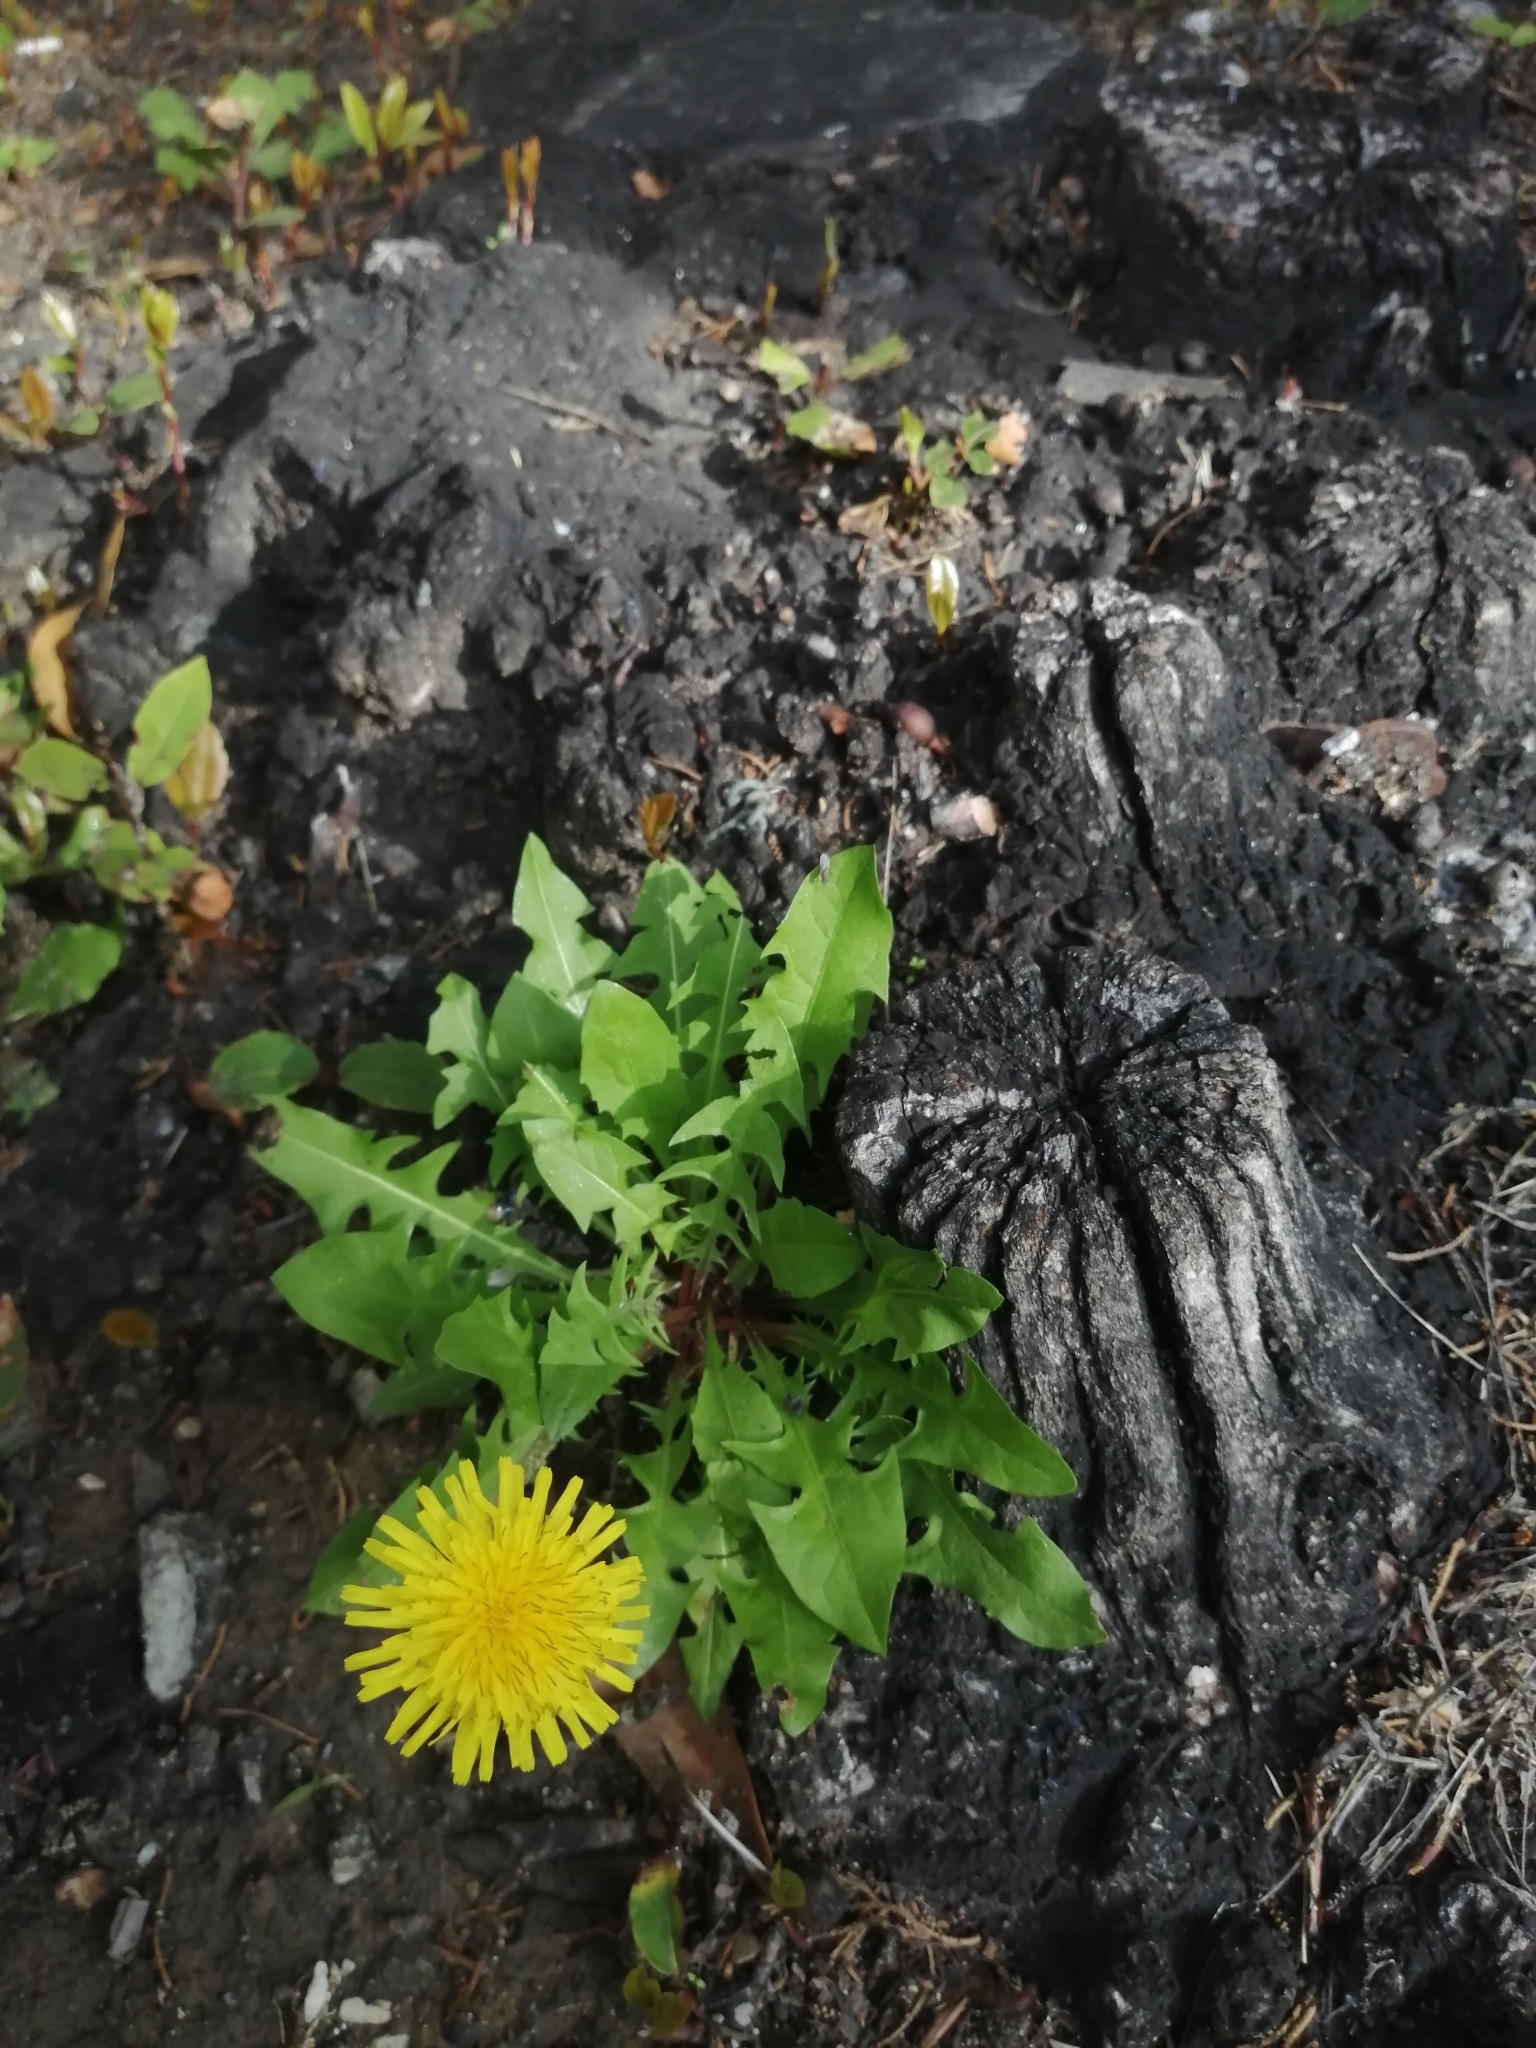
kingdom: Plantae
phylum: Tracheophyta
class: Magnoliopsida
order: Asterales
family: Asteraceae
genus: Taraxacum
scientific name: Taraxacum officinale
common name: Common dandelion
